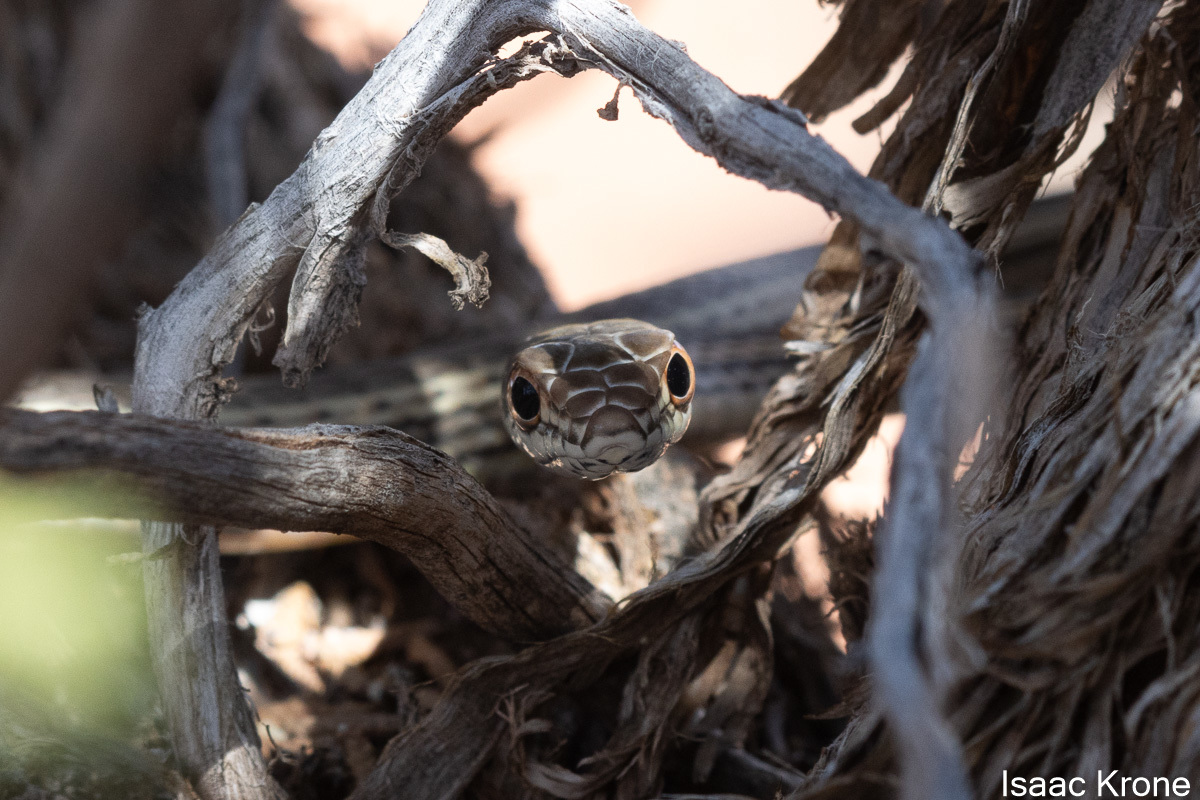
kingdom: Animalia
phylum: Chordata
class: Squamata
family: Colubridae
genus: Masticophis
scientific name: Masticophis taeniatus
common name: Striped whipsnake
